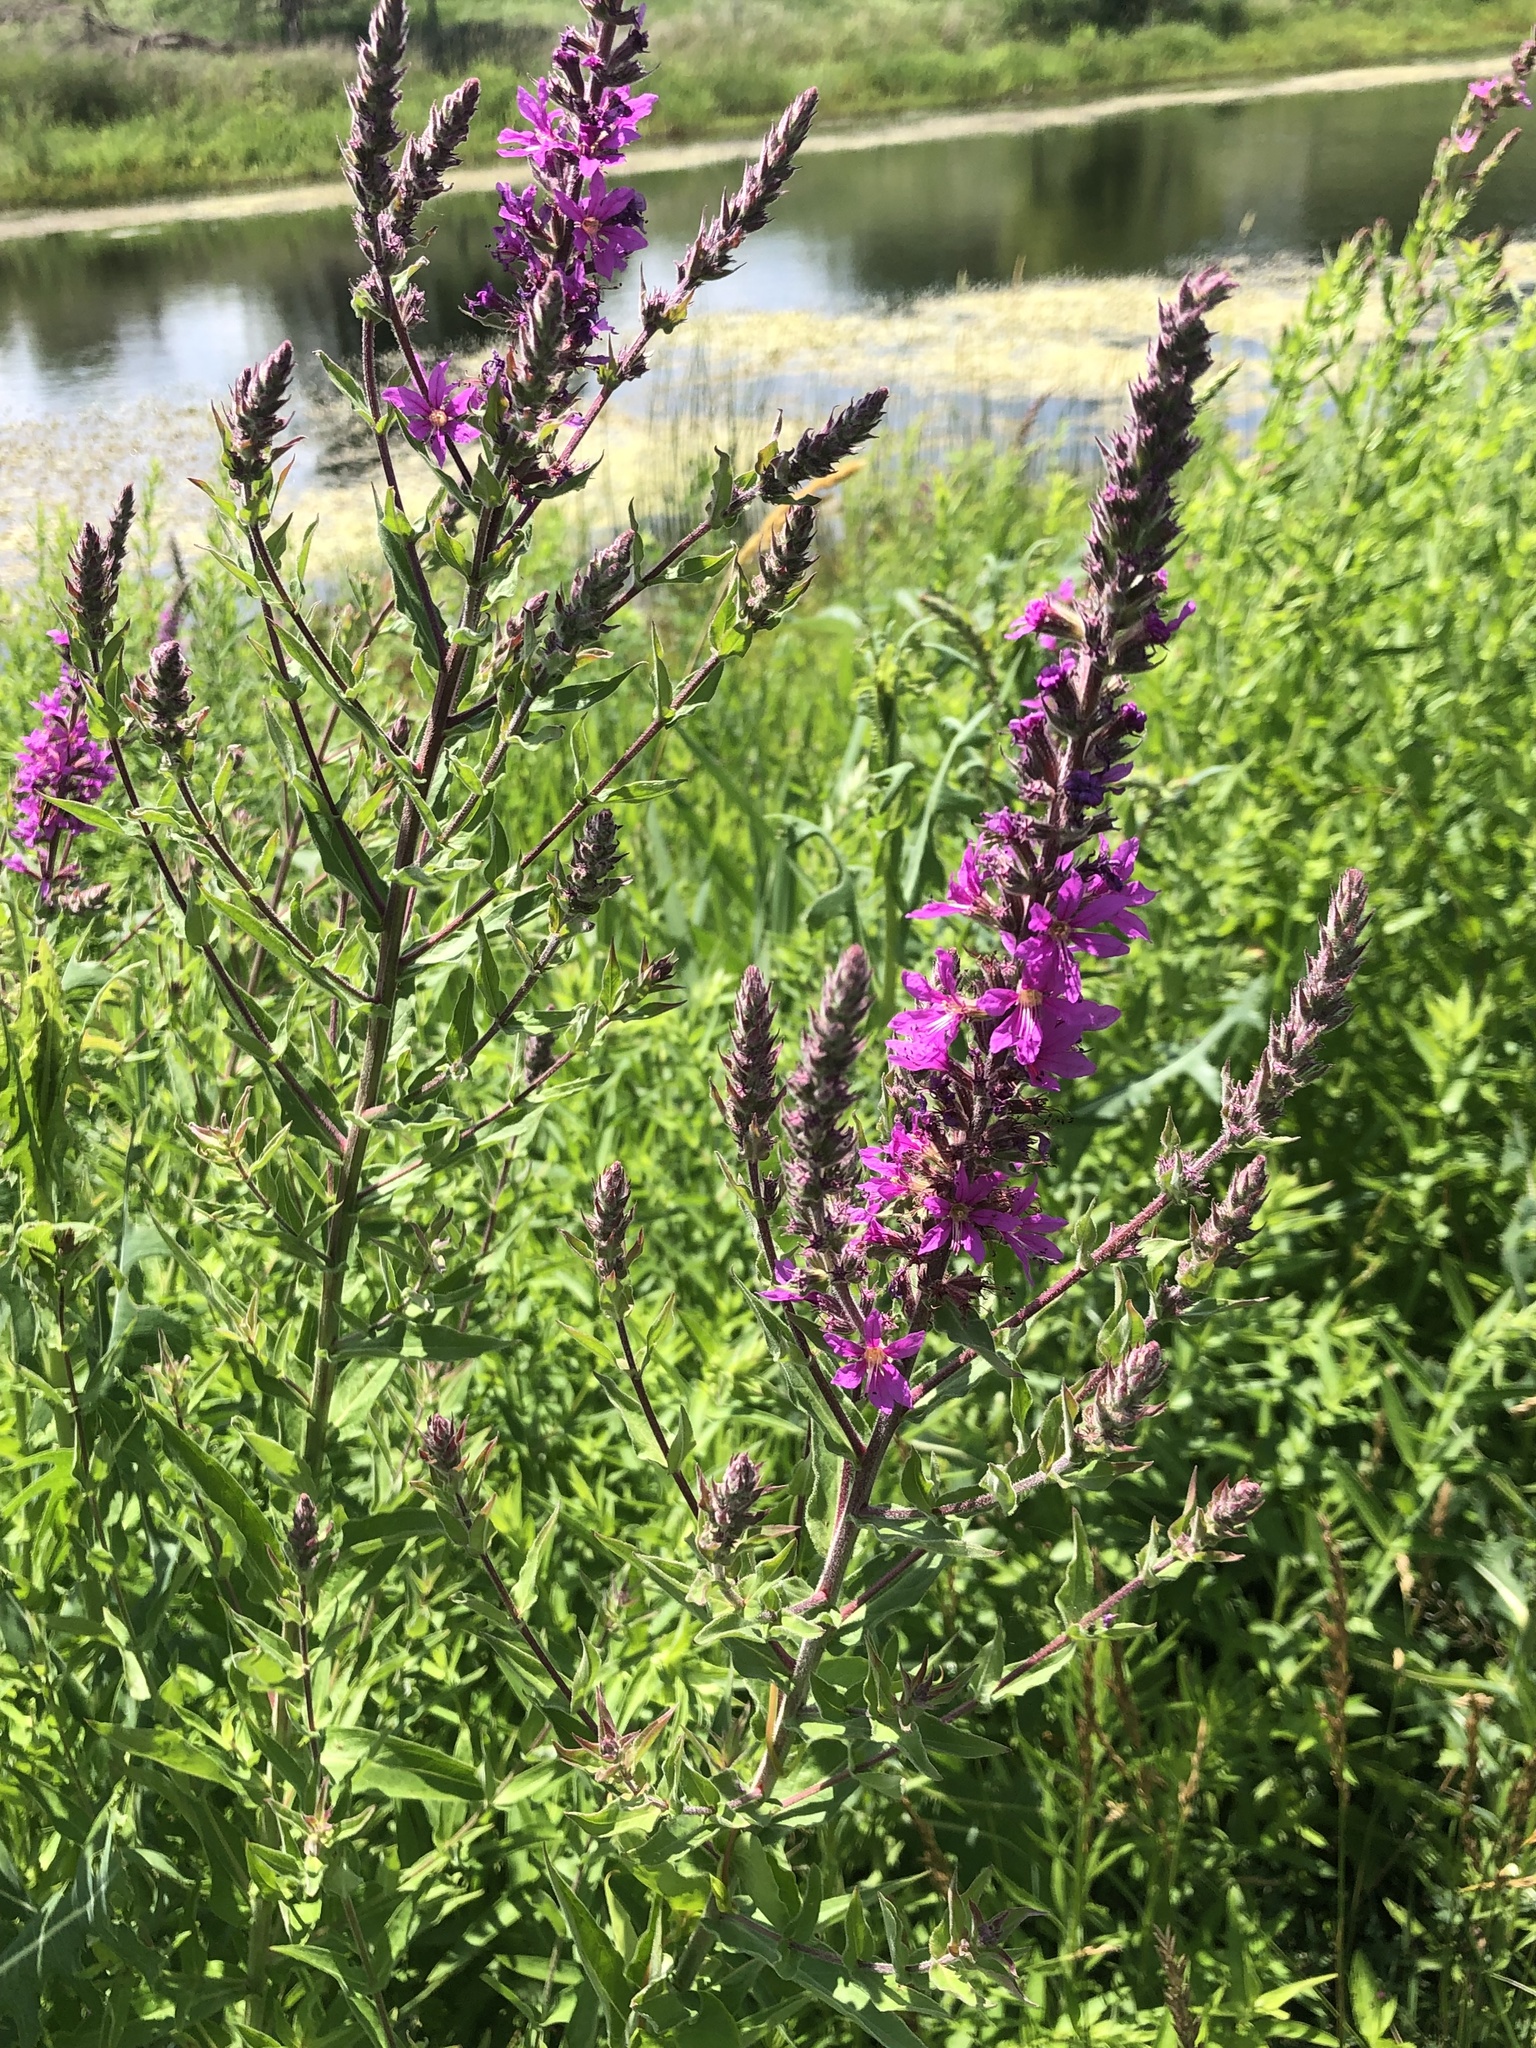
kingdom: Plantae
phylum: Tracheophyta
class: Magnoliopsida
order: Myrtales
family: Lythraceae
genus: Lythrum
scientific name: Lythrum salicaria
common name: Purple loosestrife
